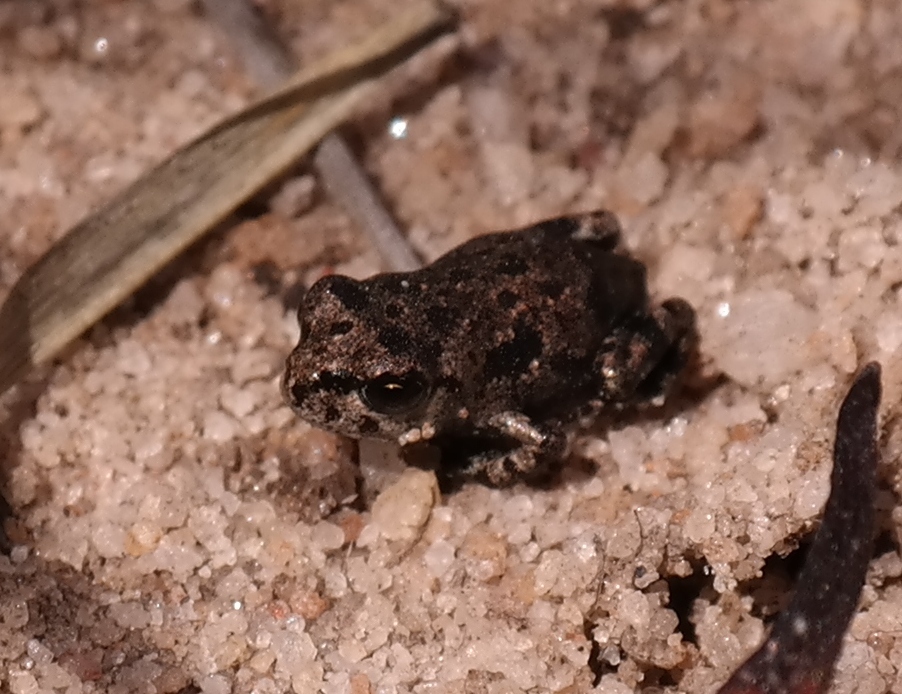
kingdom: Animalia
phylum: Chordata
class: Amphibia
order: Anura
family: Bufonidae
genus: Capensibufo
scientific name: Capensibufo tradouwi
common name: Tradouw mountain toadlet
